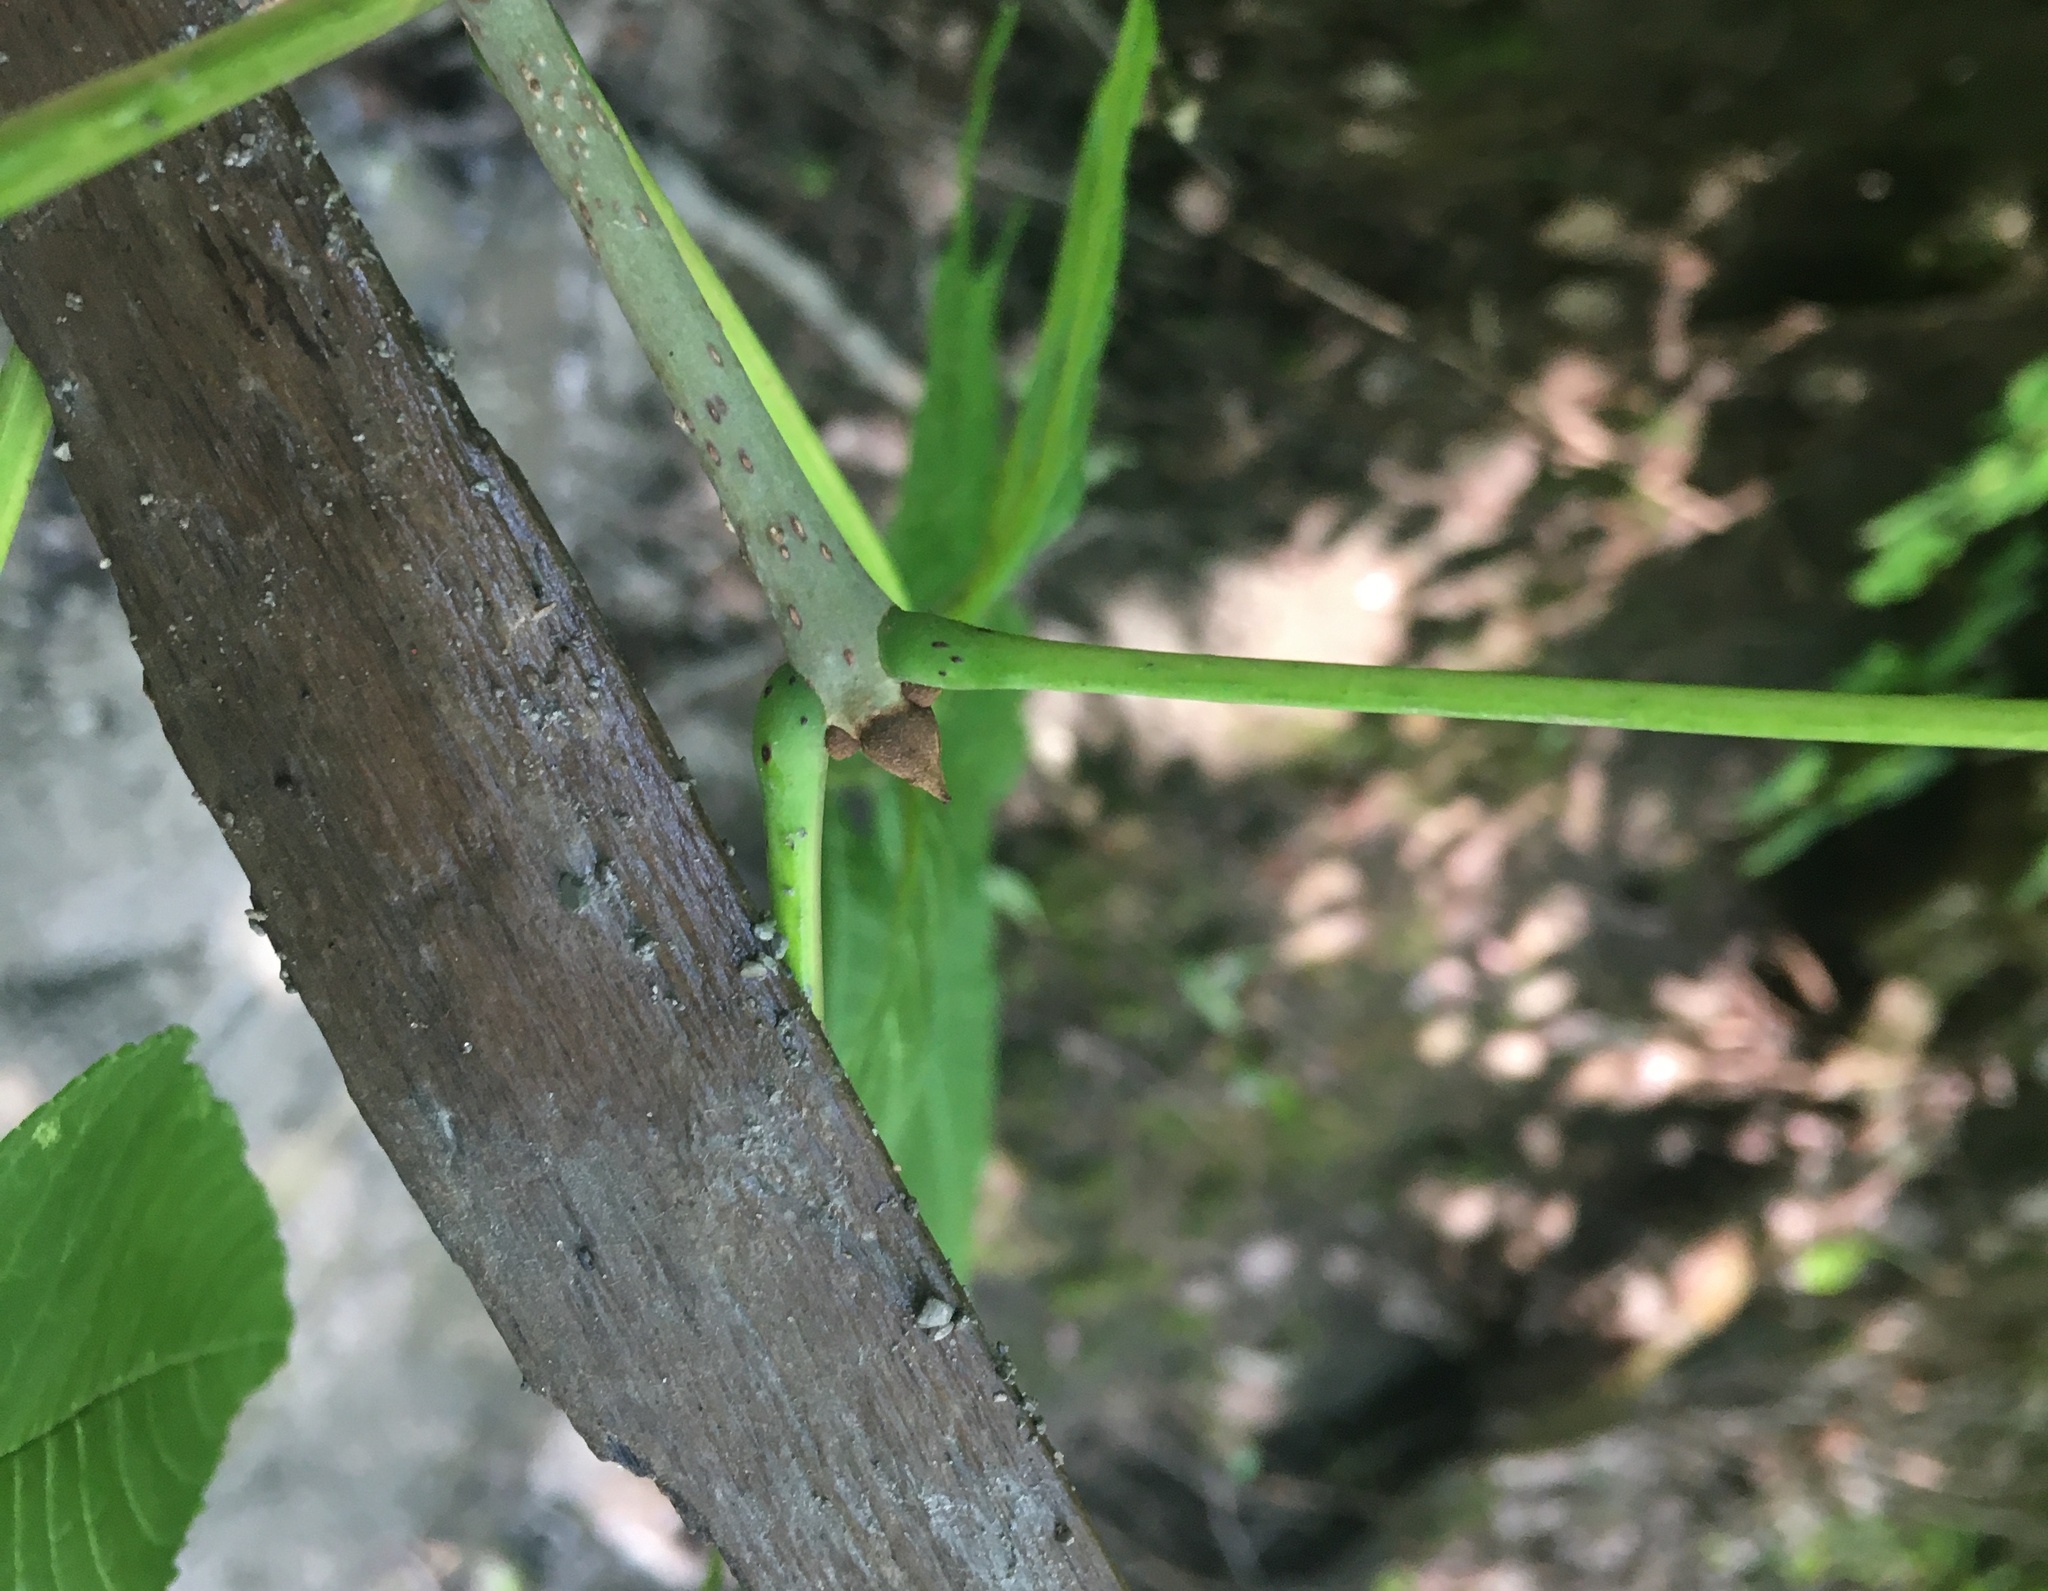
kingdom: Plantae
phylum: Tracheophyta
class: Magnoliopsida
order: Lamiales
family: Oleaceae
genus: Fraxinus
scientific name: Fraxinus nigra
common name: Black ash
